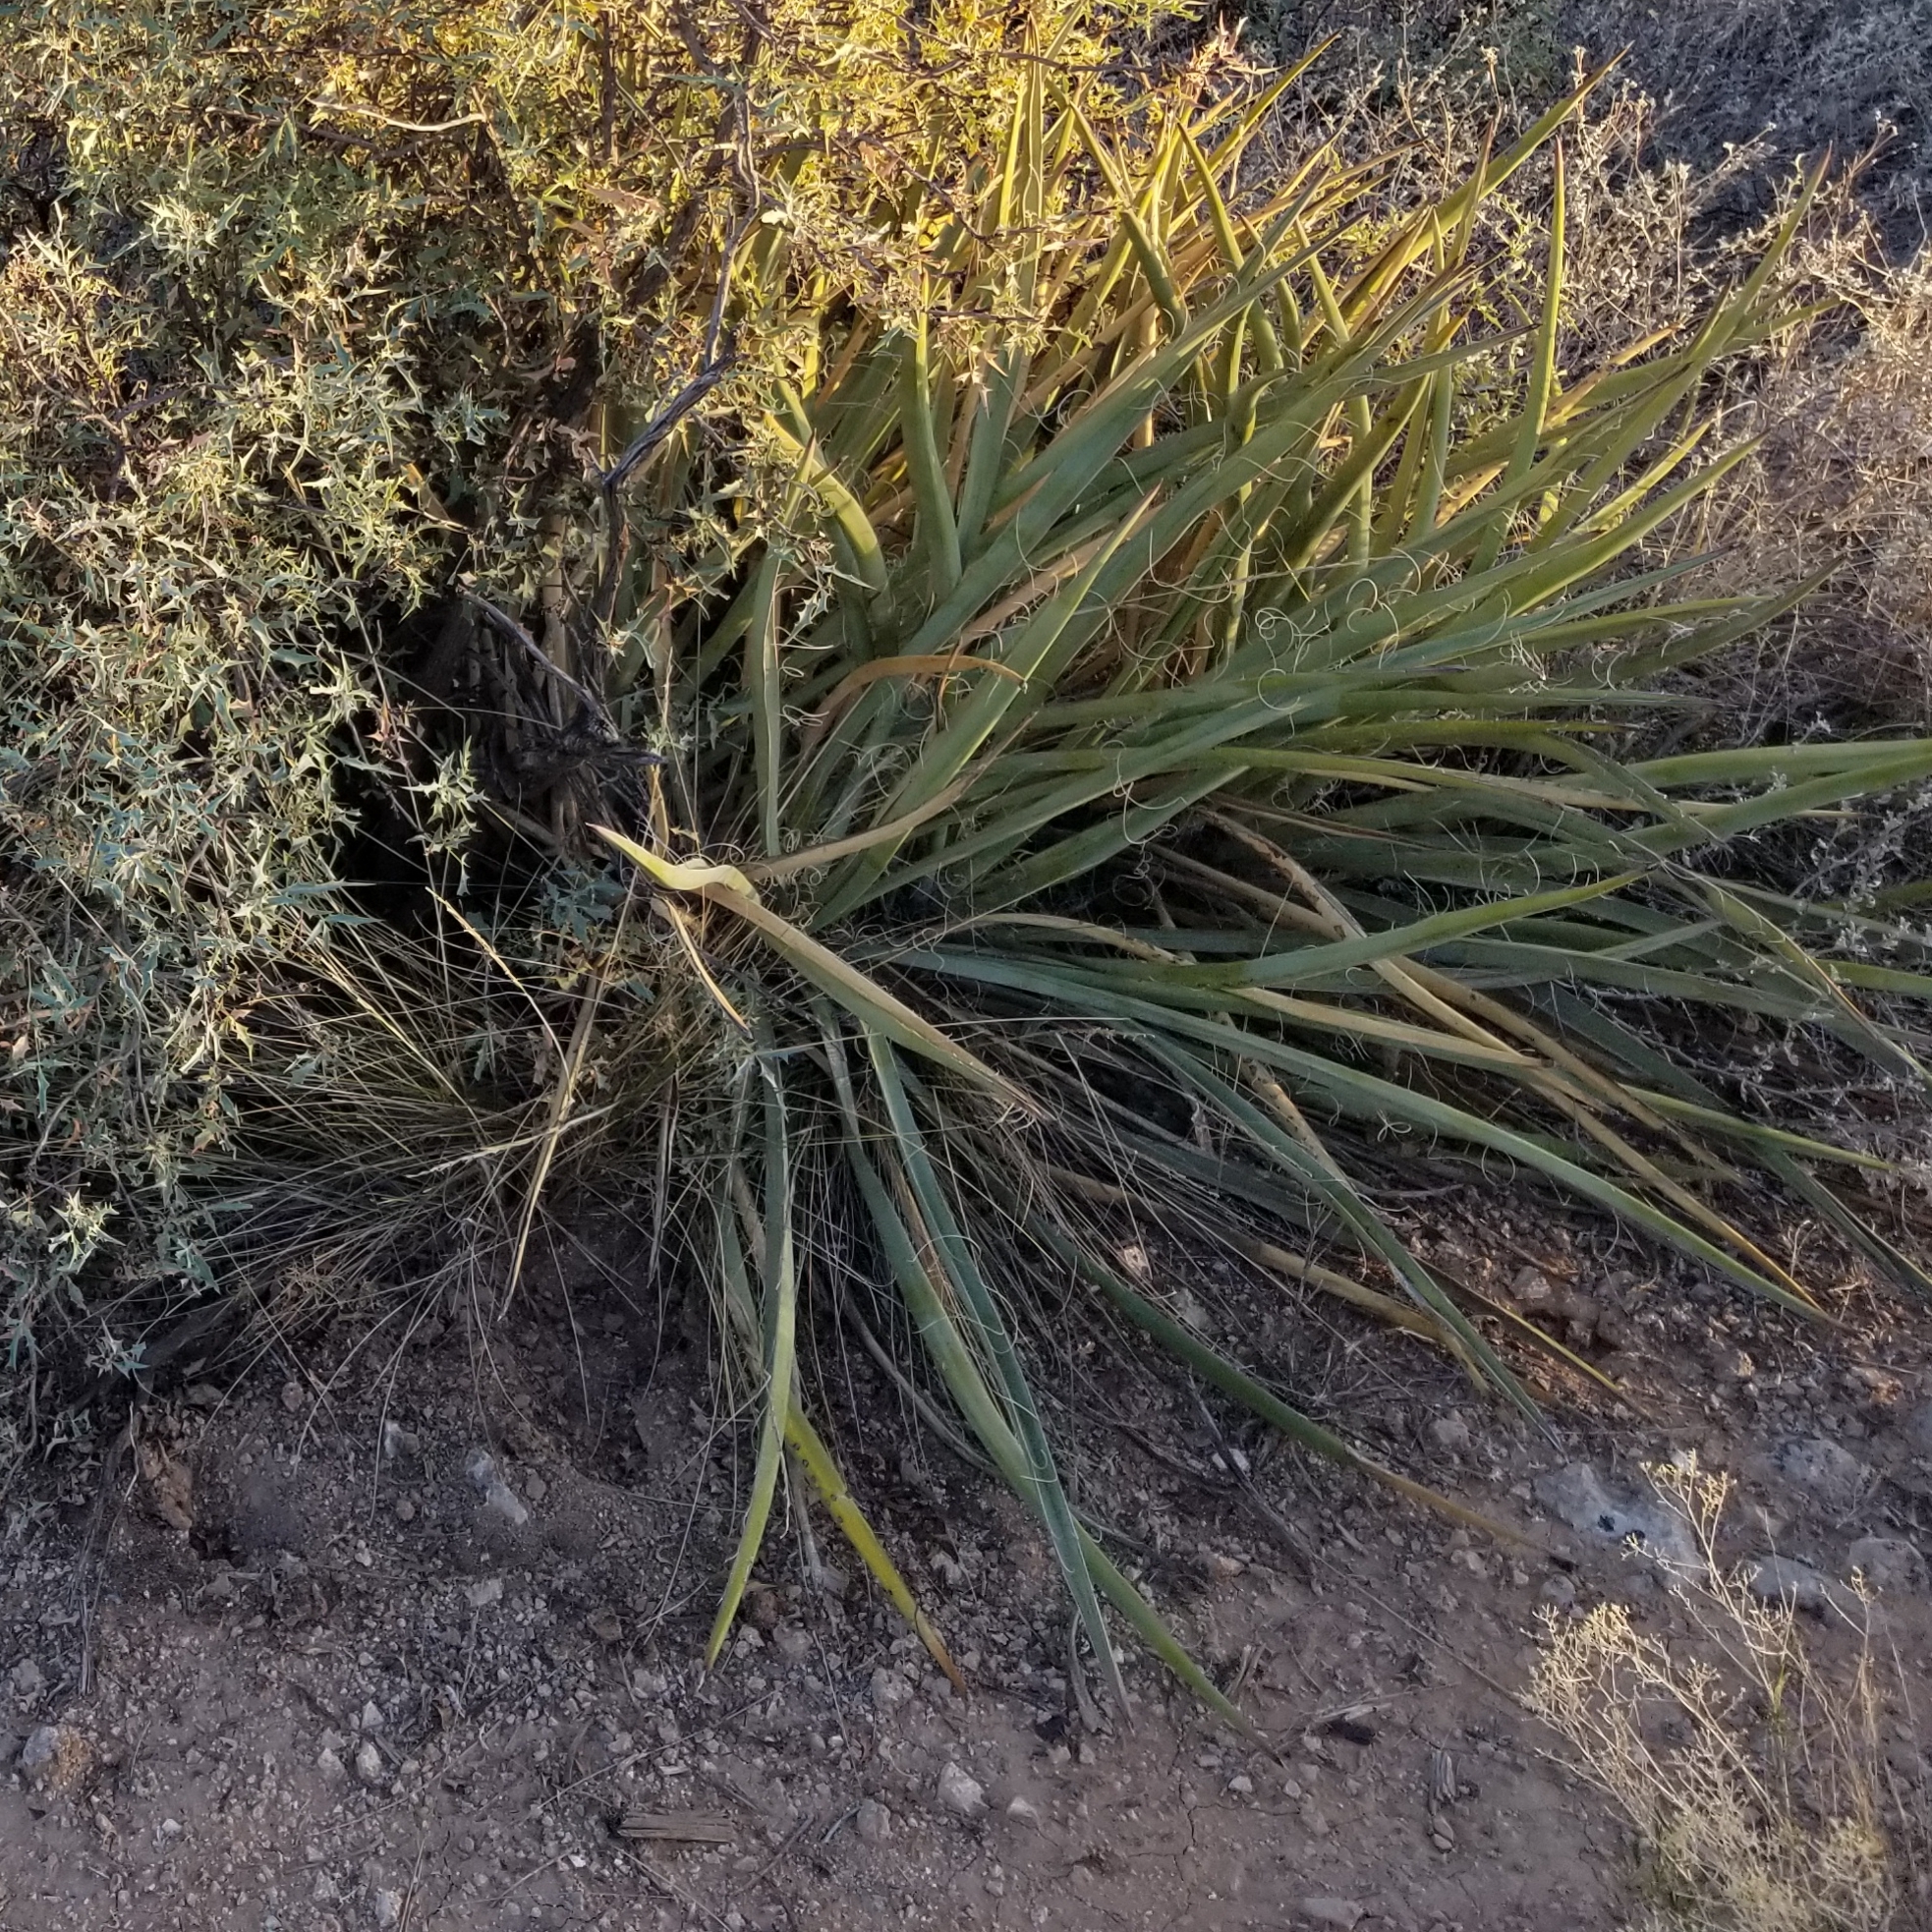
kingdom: Plantae
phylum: Tracheophyta
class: Liliopsida
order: Asparagales
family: Asparagaceae
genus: Yucca
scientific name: Yucca baccata
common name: Banana yucca
